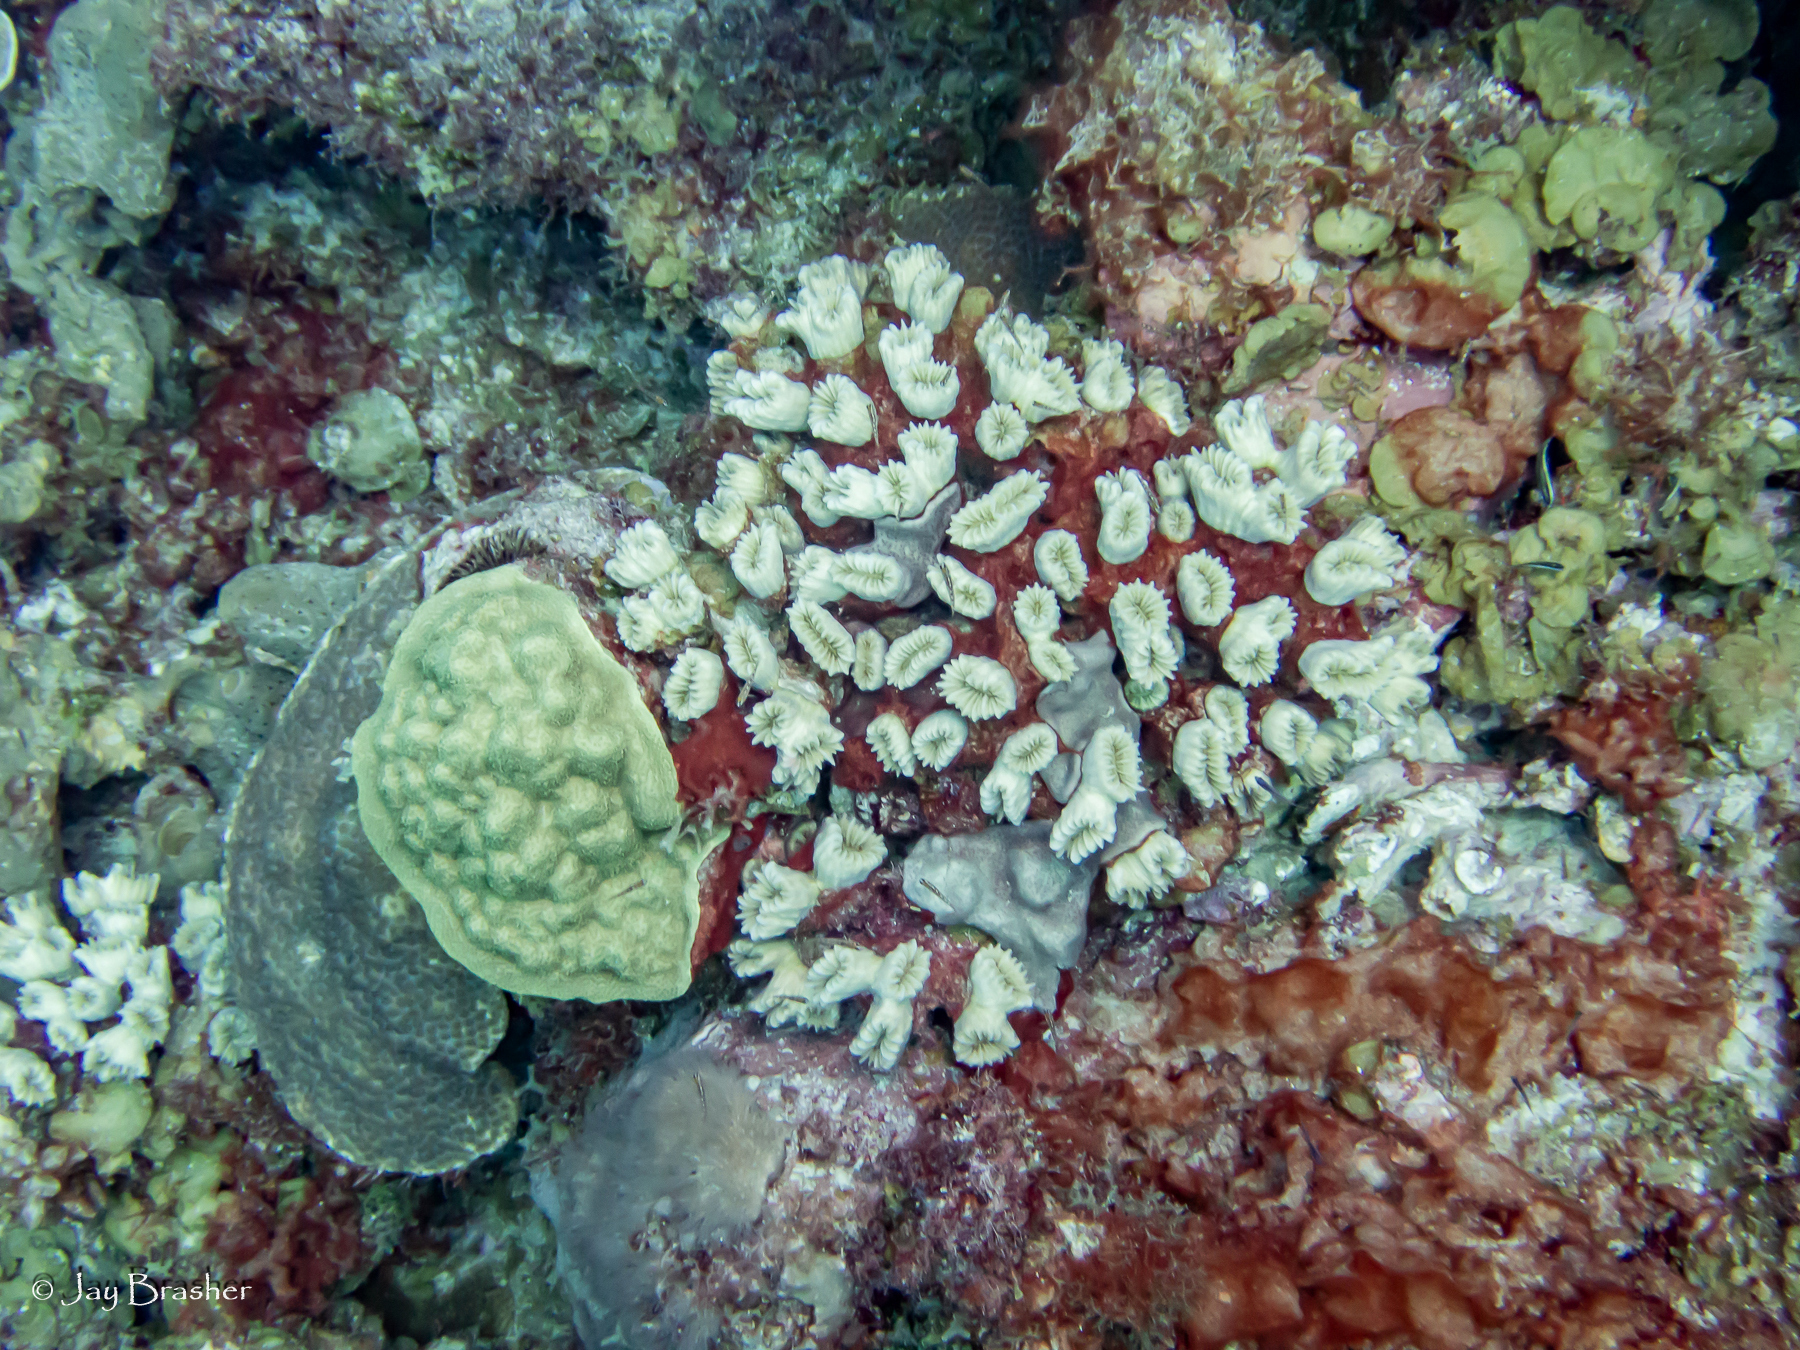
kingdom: Animalia
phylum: Cnidaria
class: Anthozoa
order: Scleractinia
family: Meandrinidae
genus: Eusmilia
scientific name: Eusmilia fastigiata
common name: Smooth flower coral
